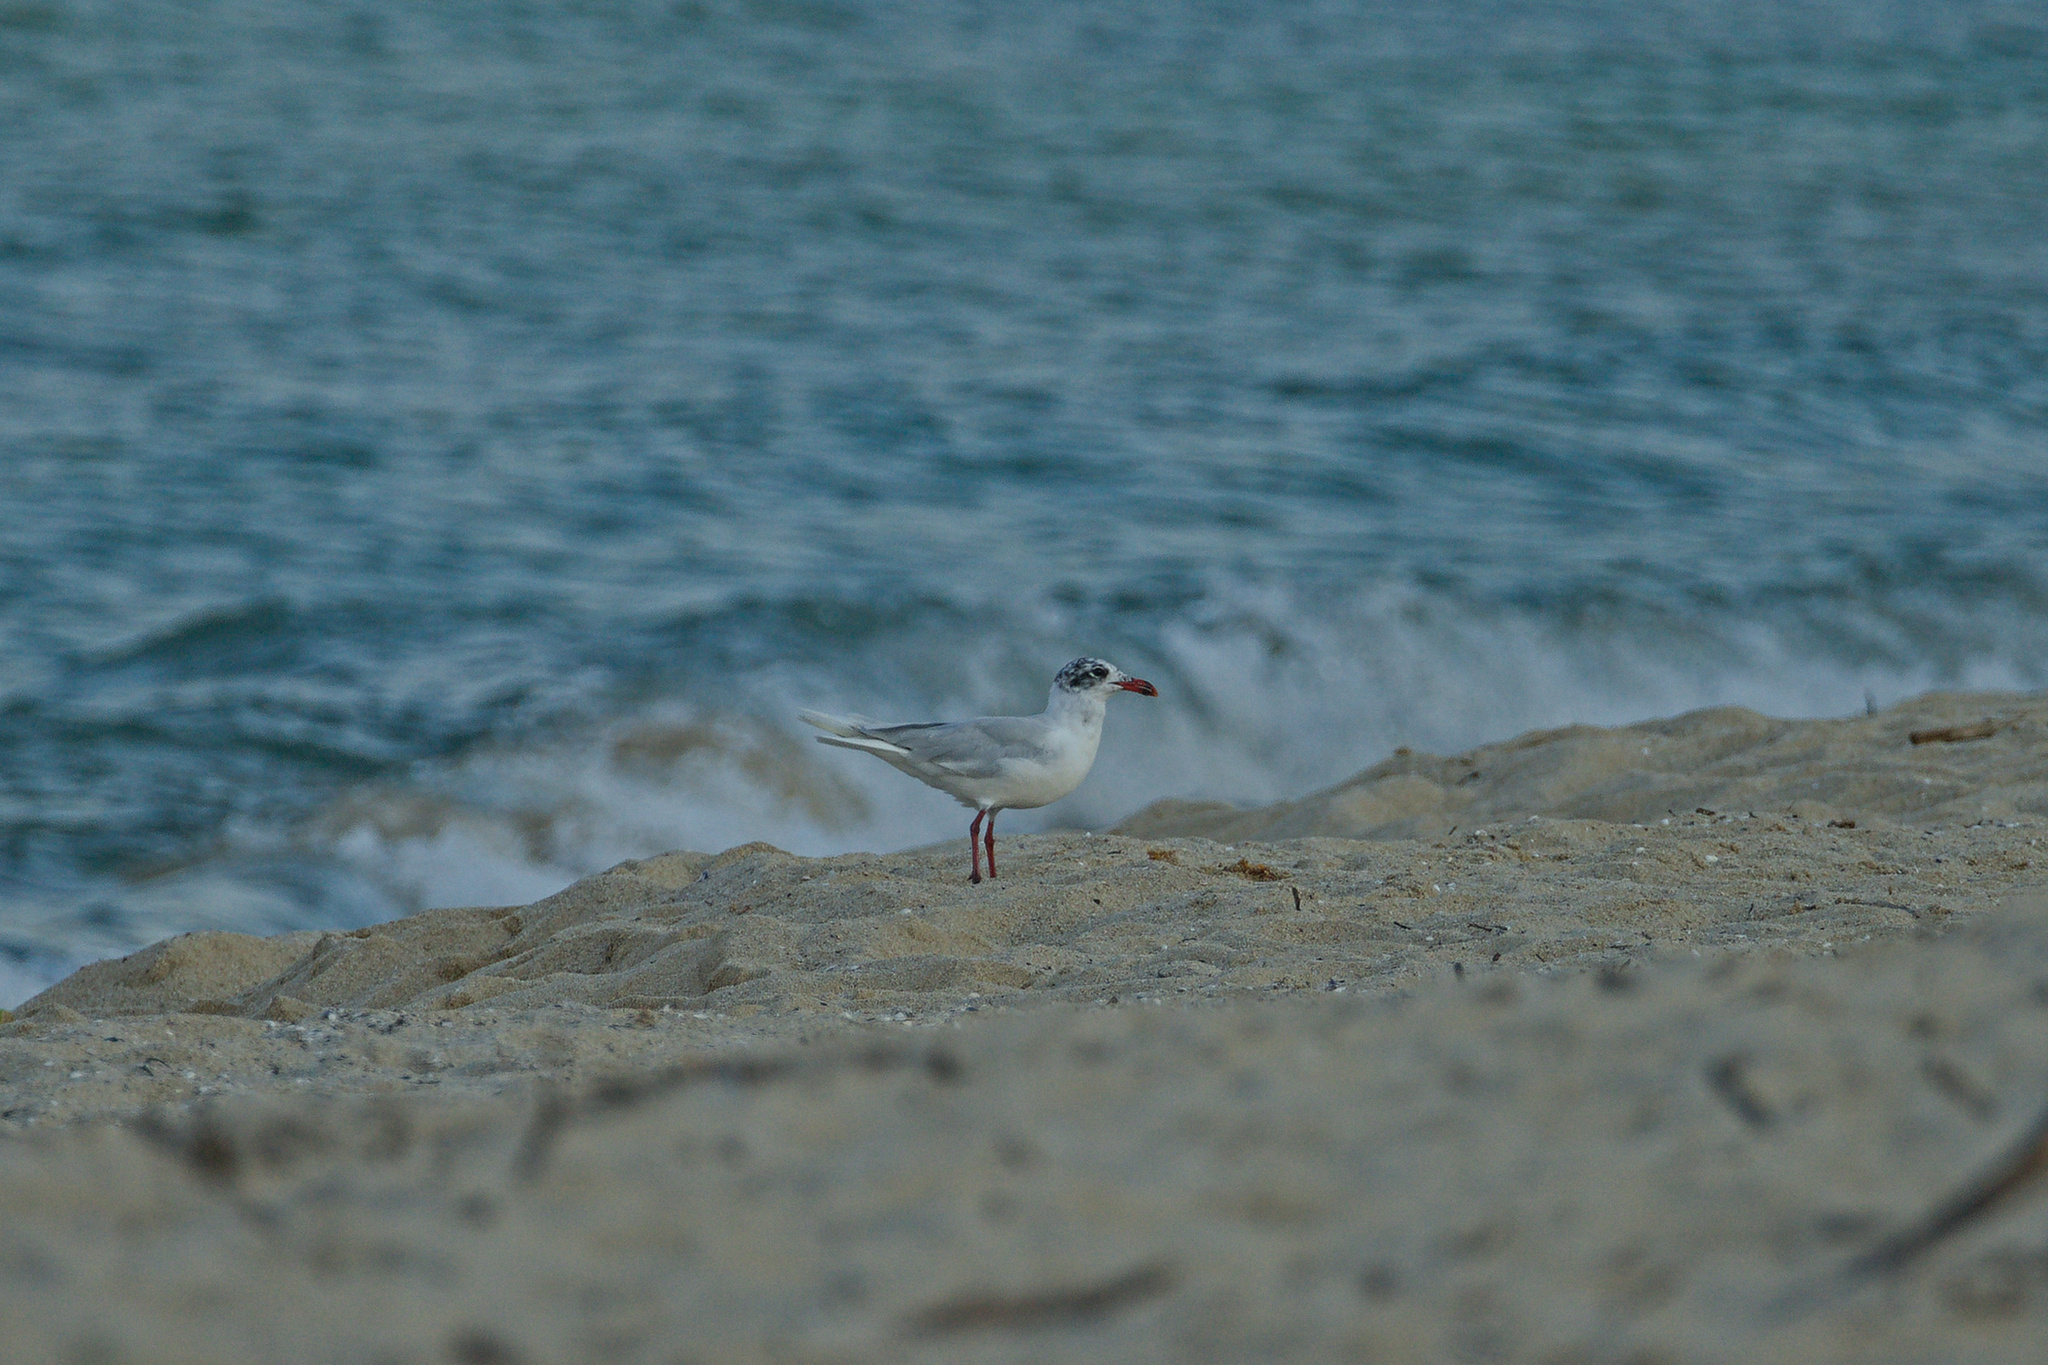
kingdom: Animalia
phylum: Chordata
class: Aves
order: Charadriiformes
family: Laridae
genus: Ichthyaetus
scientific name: Ichthyaetus melanocephalus
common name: Mediterranean gull
